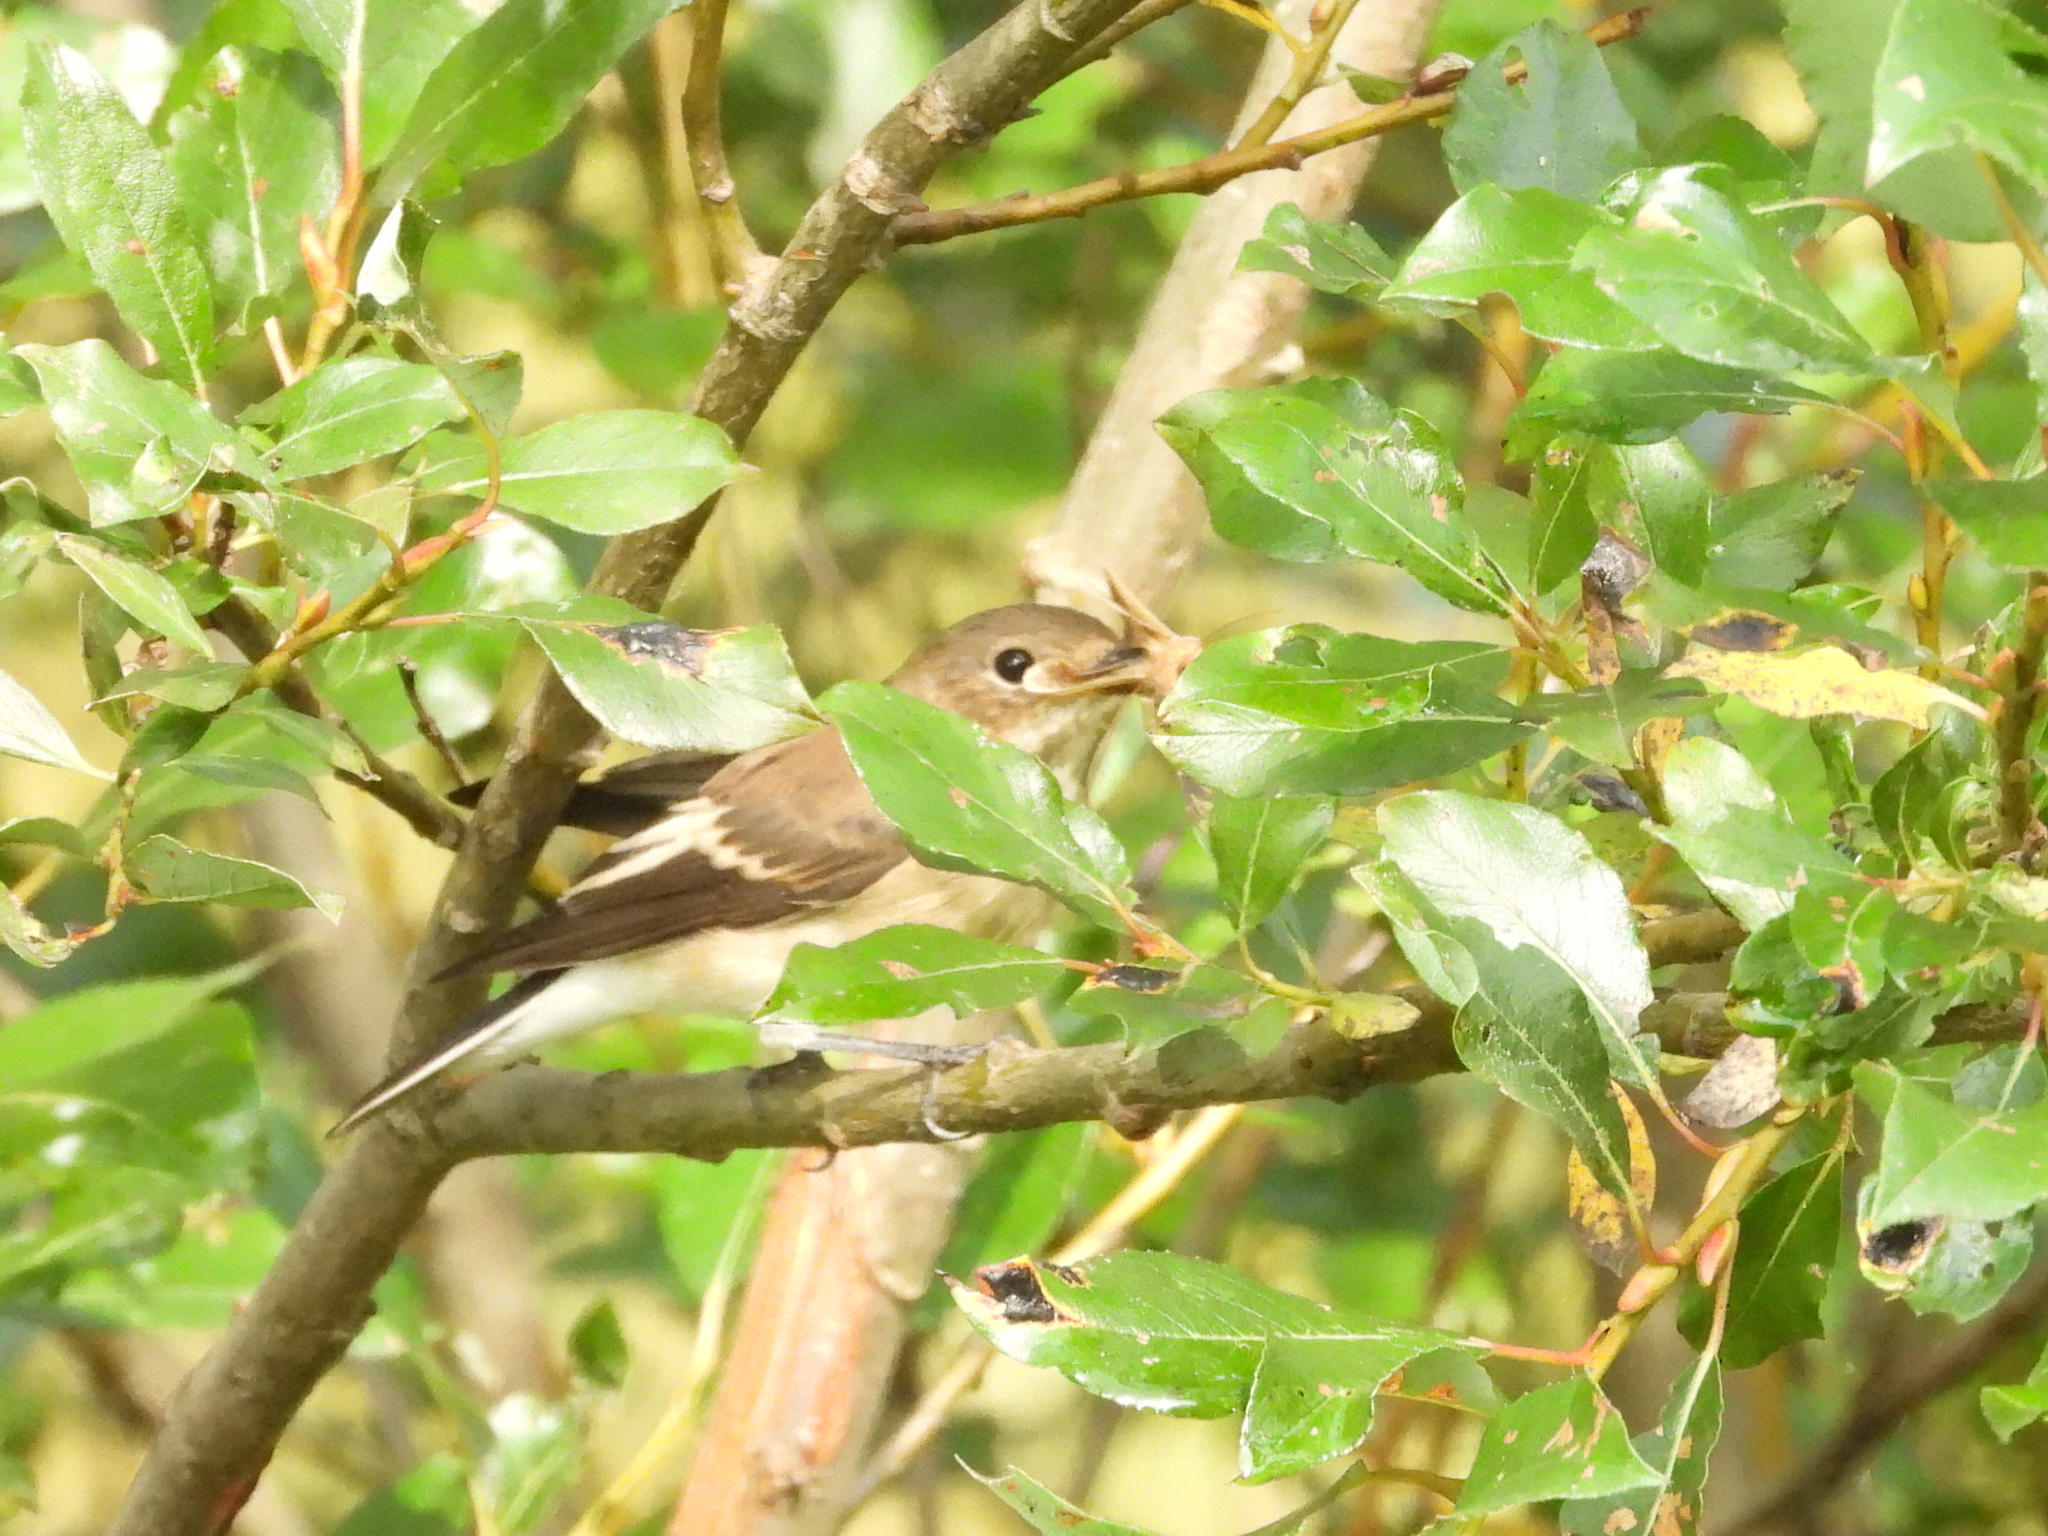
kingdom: Animalia
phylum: Chordata
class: Aves
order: Passeriformes
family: Muscicapidae
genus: Ficedula
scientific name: Ficedula hypoleuca
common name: European pied flycatcher
